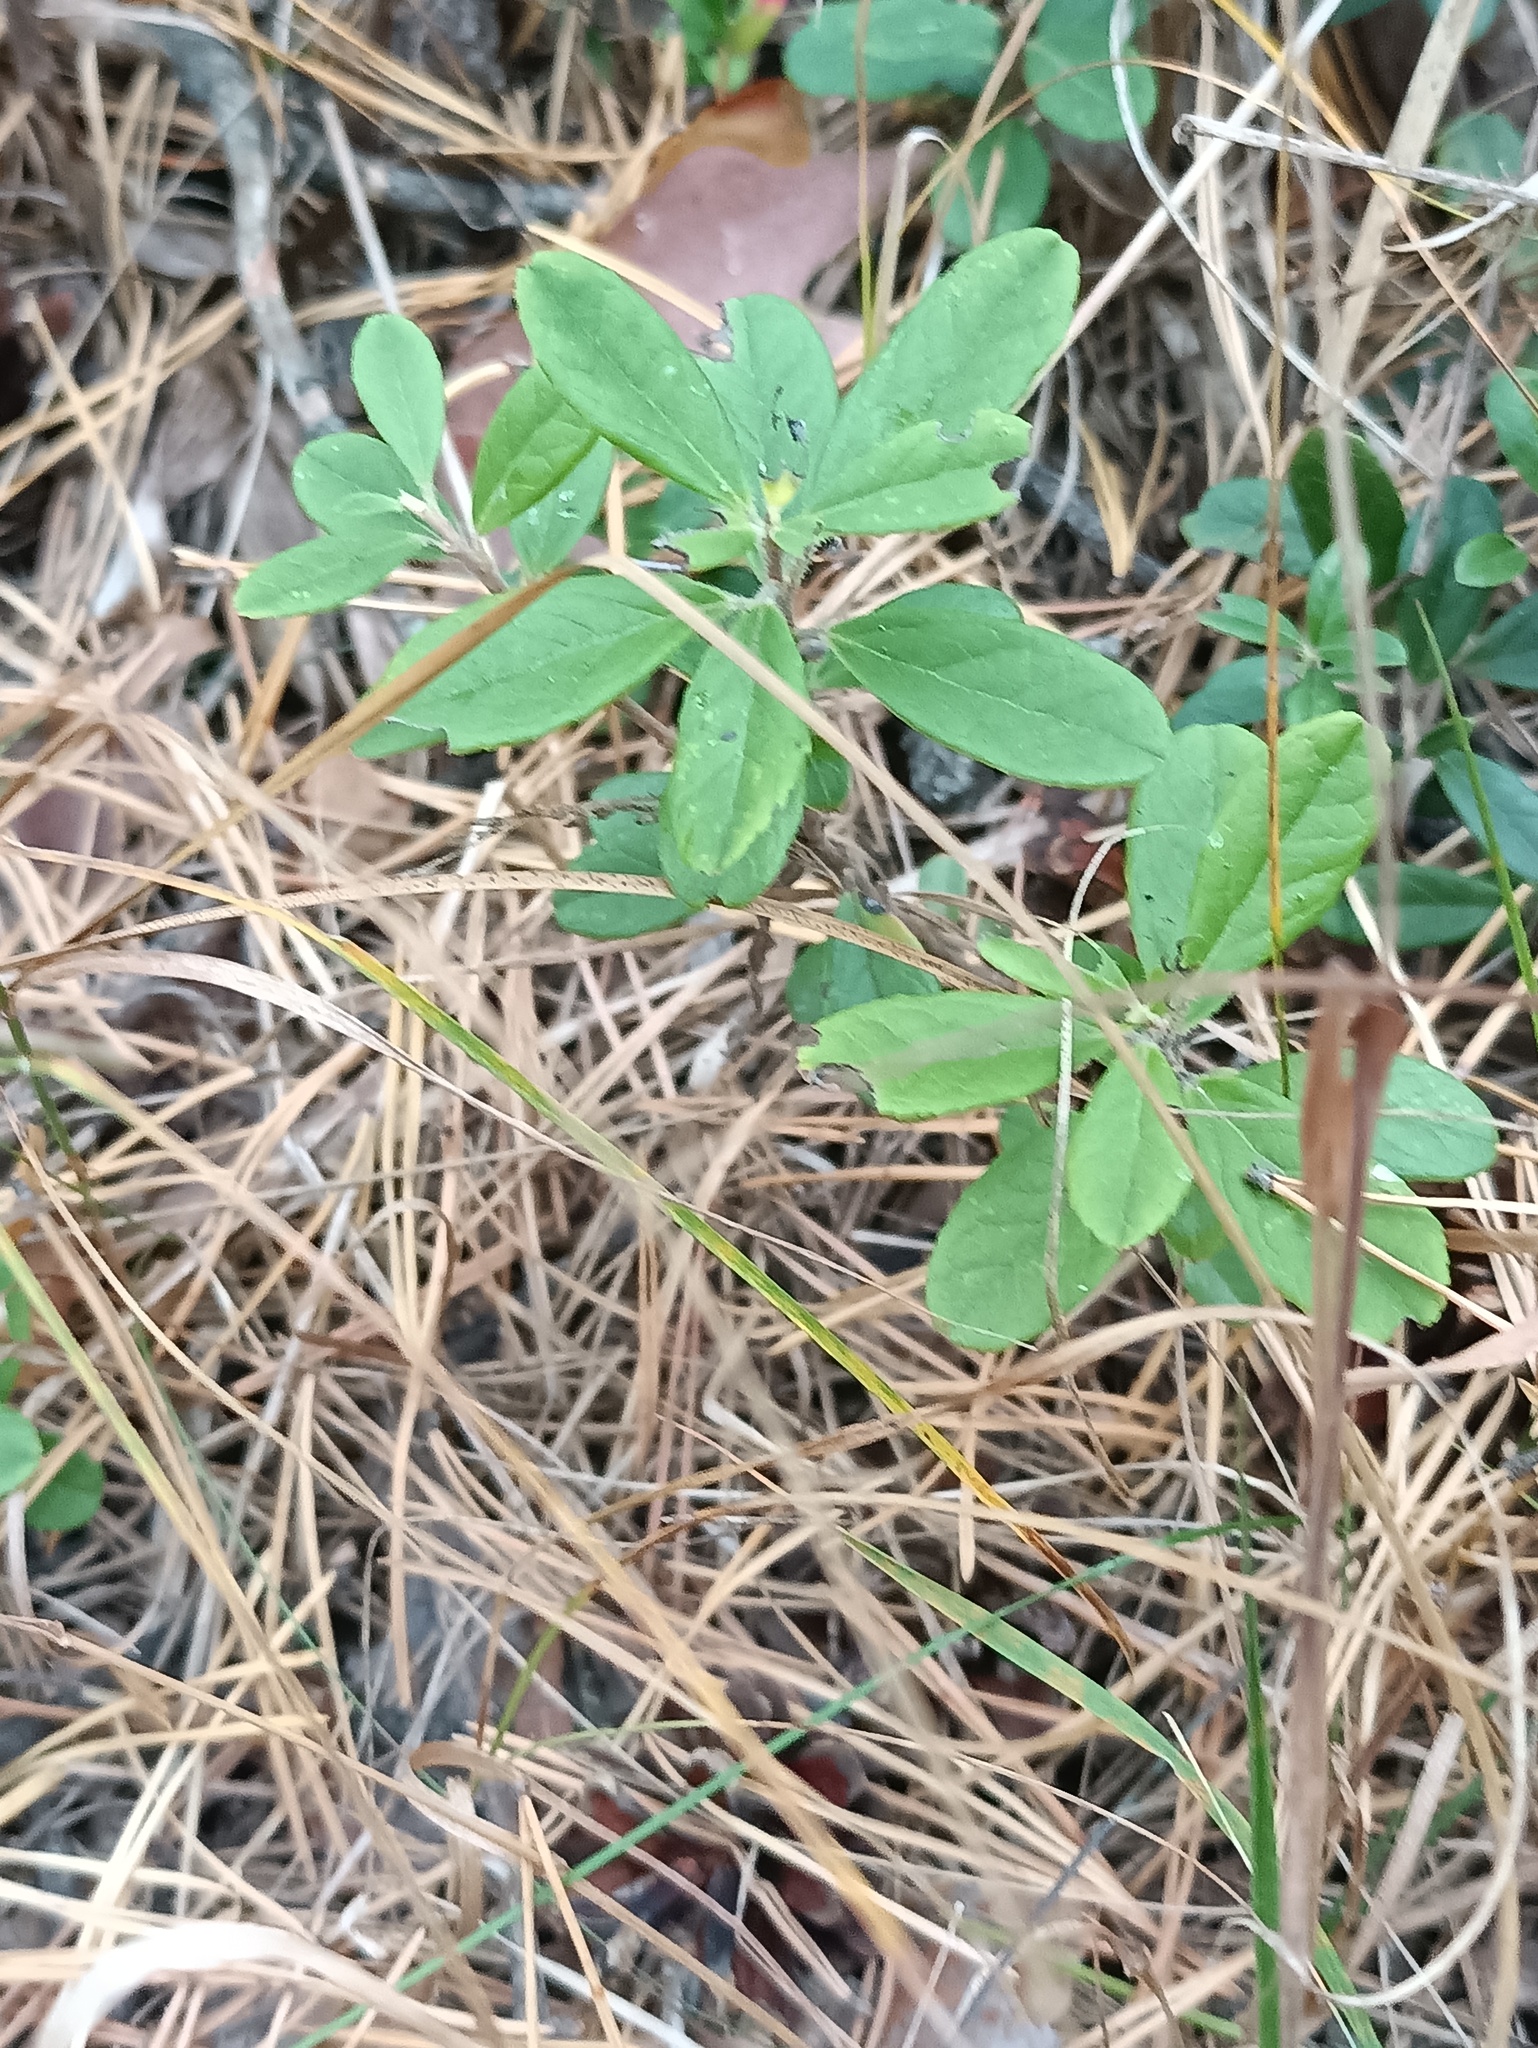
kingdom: Plantae
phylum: Tracheophyta
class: Magnoliopsida
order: Ericales
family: Ericaceae
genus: Vaccinium
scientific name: Vaccinium vitis-idaea
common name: Cowberry
